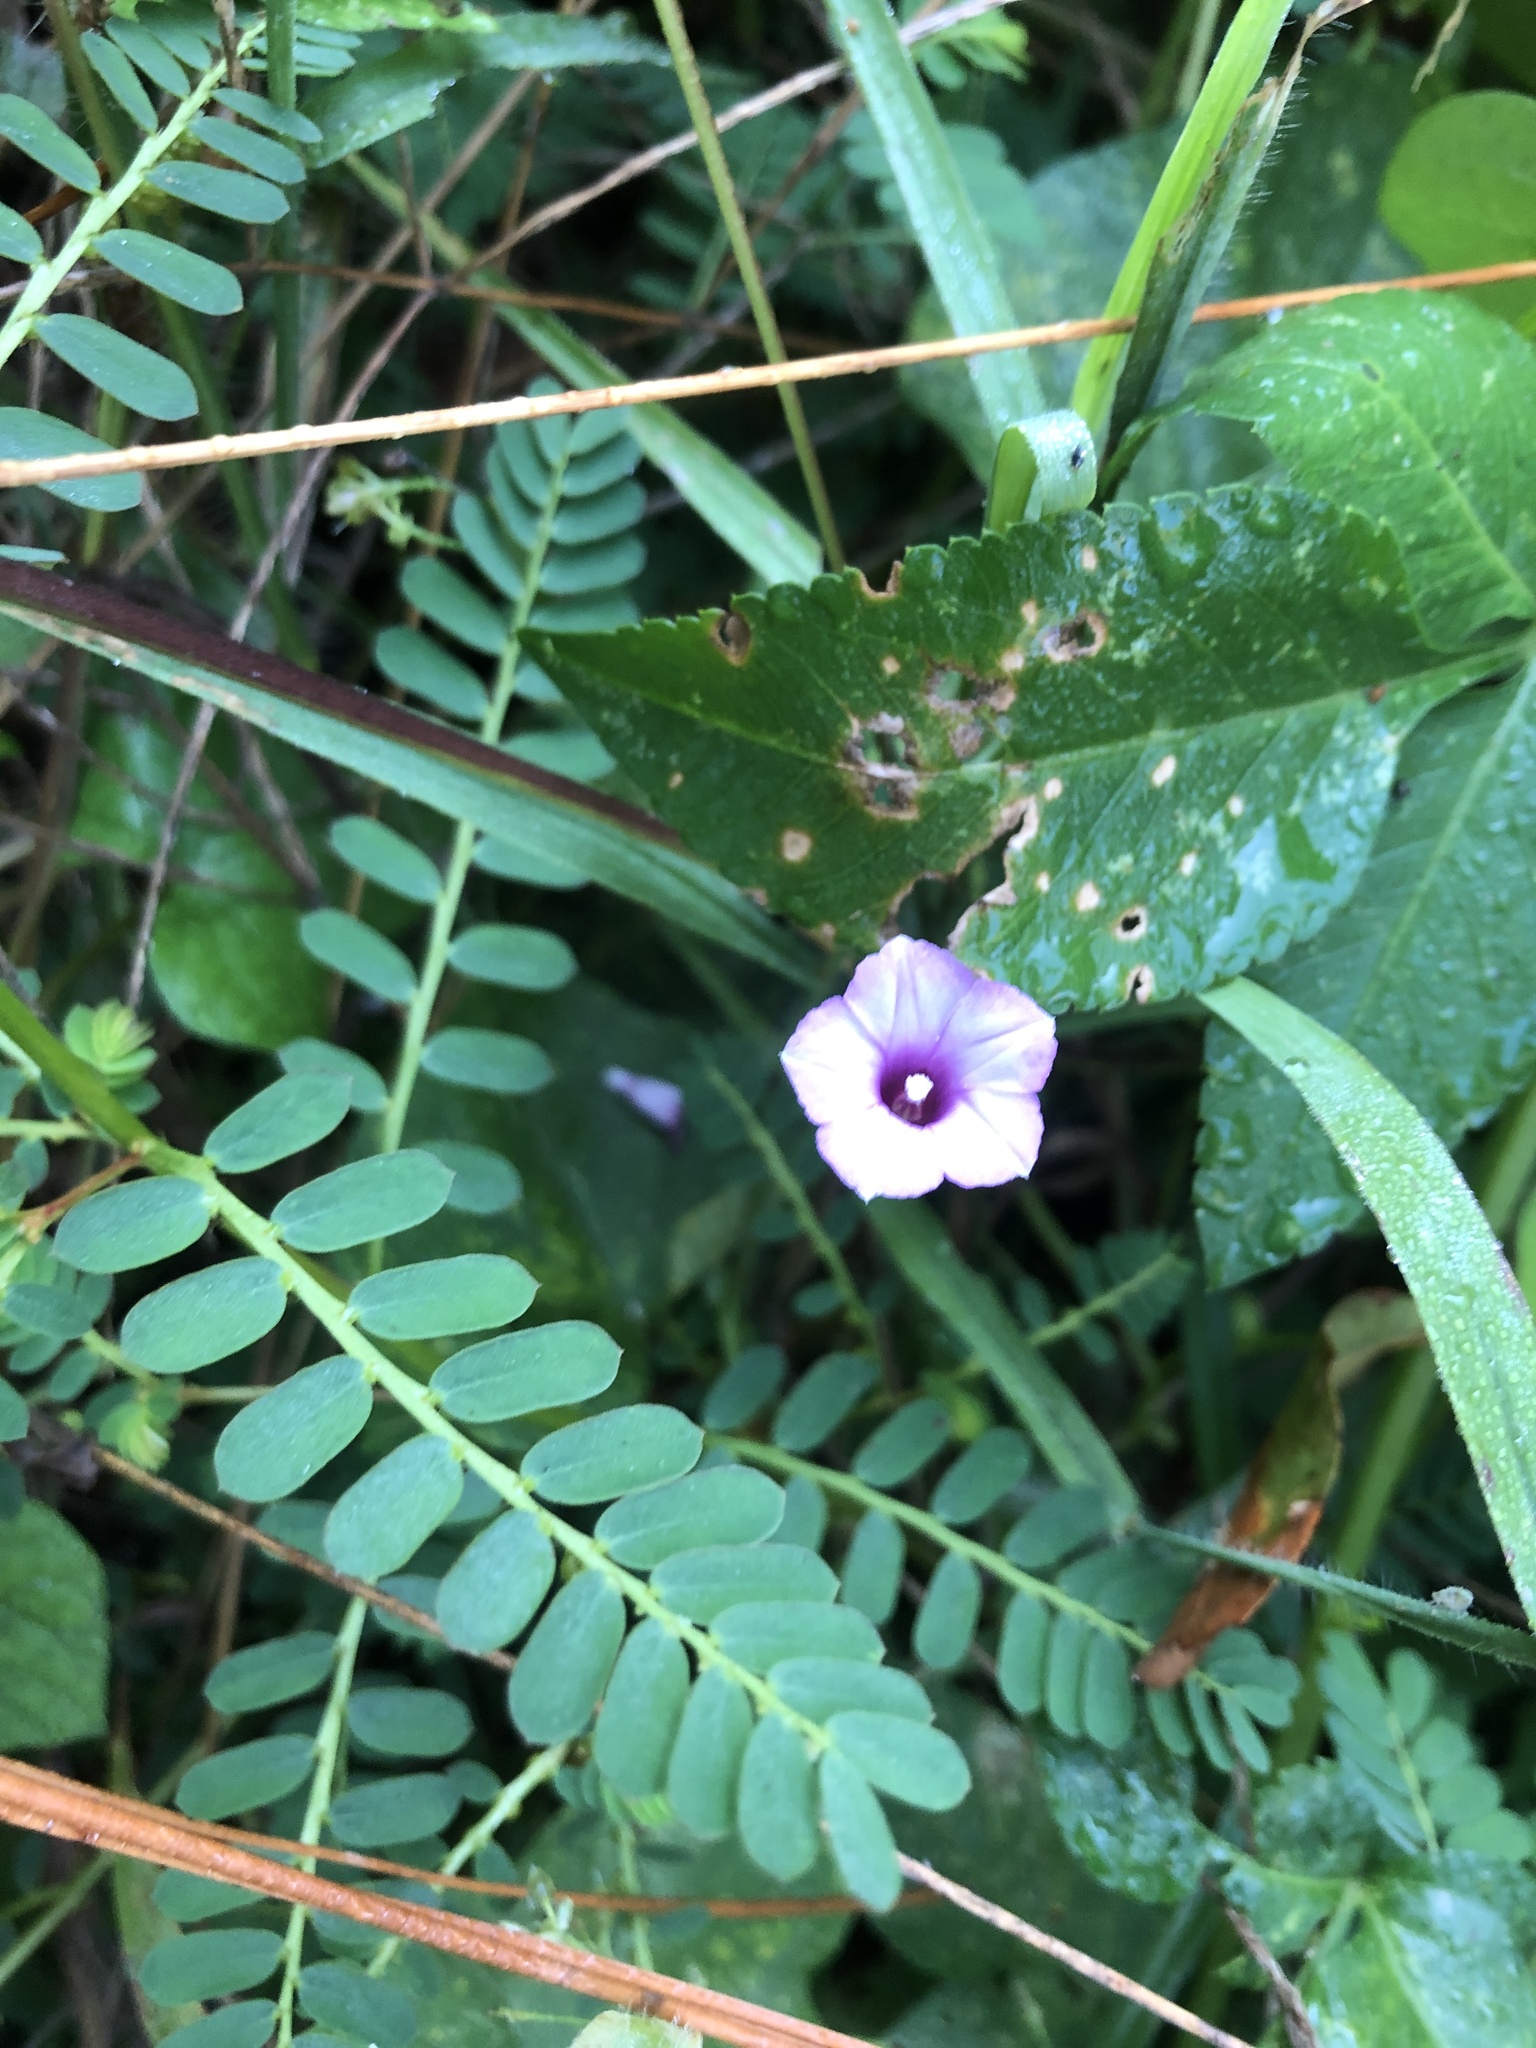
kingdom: Plantae
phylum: Tracheophyta
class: Magnoliopsida
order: Solanales
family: Convolvulaceae
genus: Ipomoea
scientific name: Ipomoea triloba
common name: Little-bell
